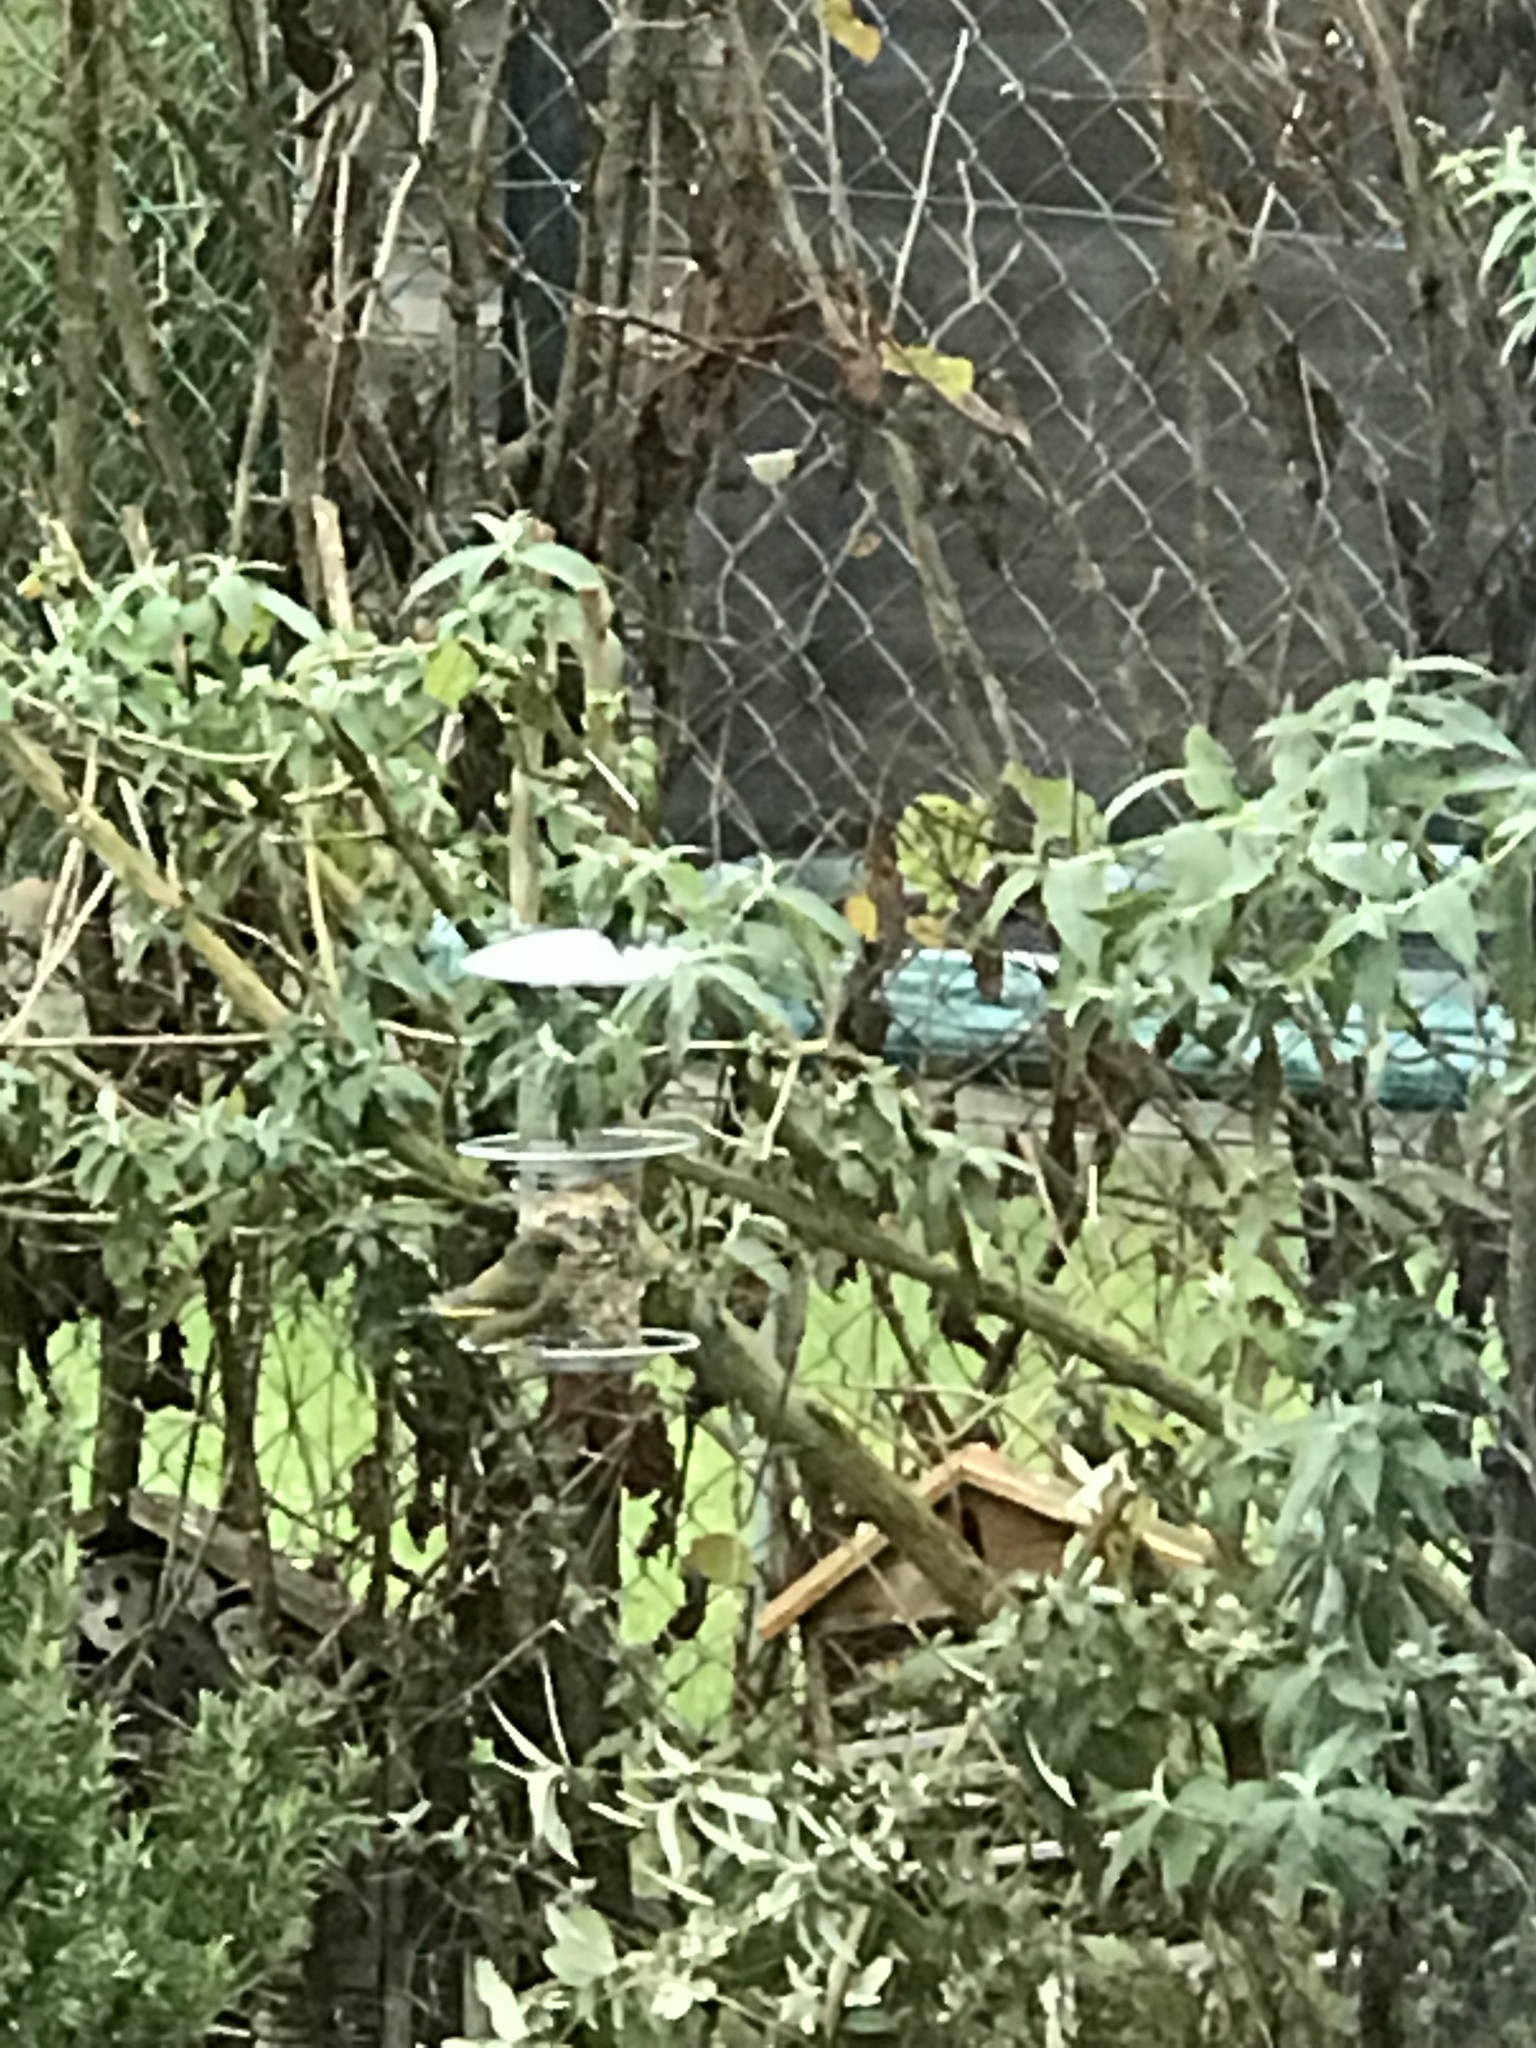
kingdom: Plantae
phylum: Tracheophyta
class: Liliopsida
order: Poales
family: Poaceae
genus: Chloris
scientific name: Chloris chloris
